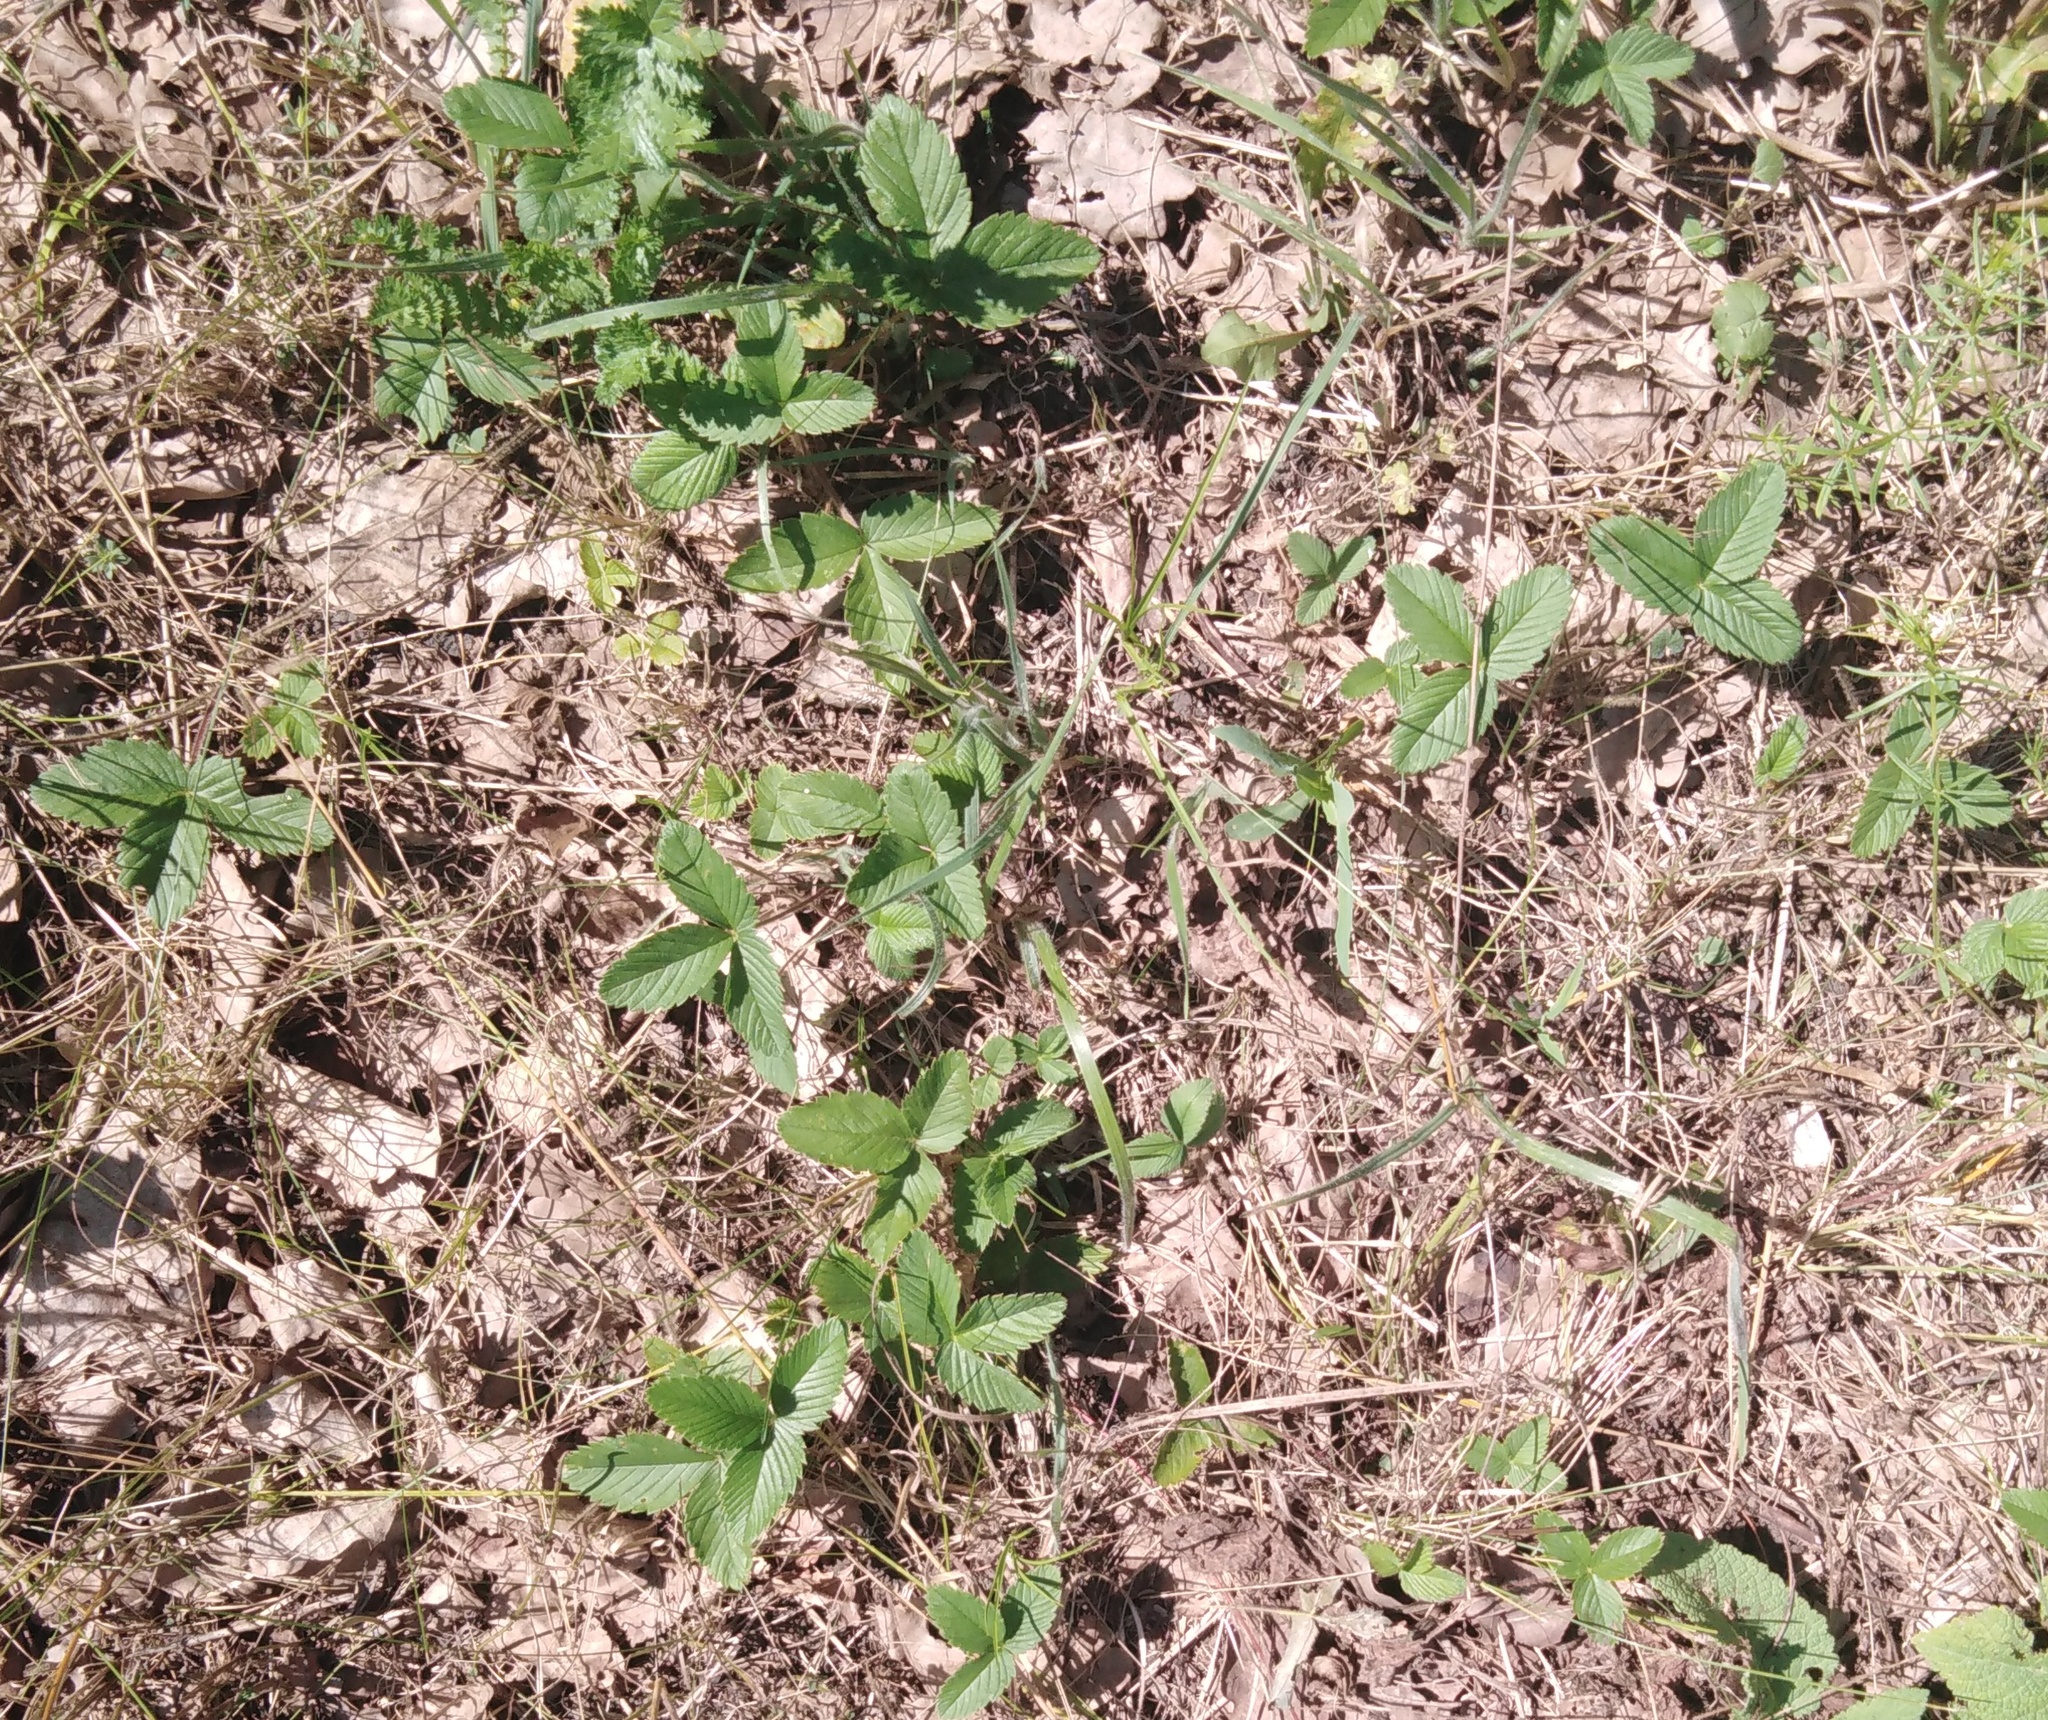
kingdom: Plantae
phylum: Tracheophyta
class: Magnoliopsida
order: Rosales
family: Rosaceae
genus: Fragaria
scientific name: Fragaria viridis
